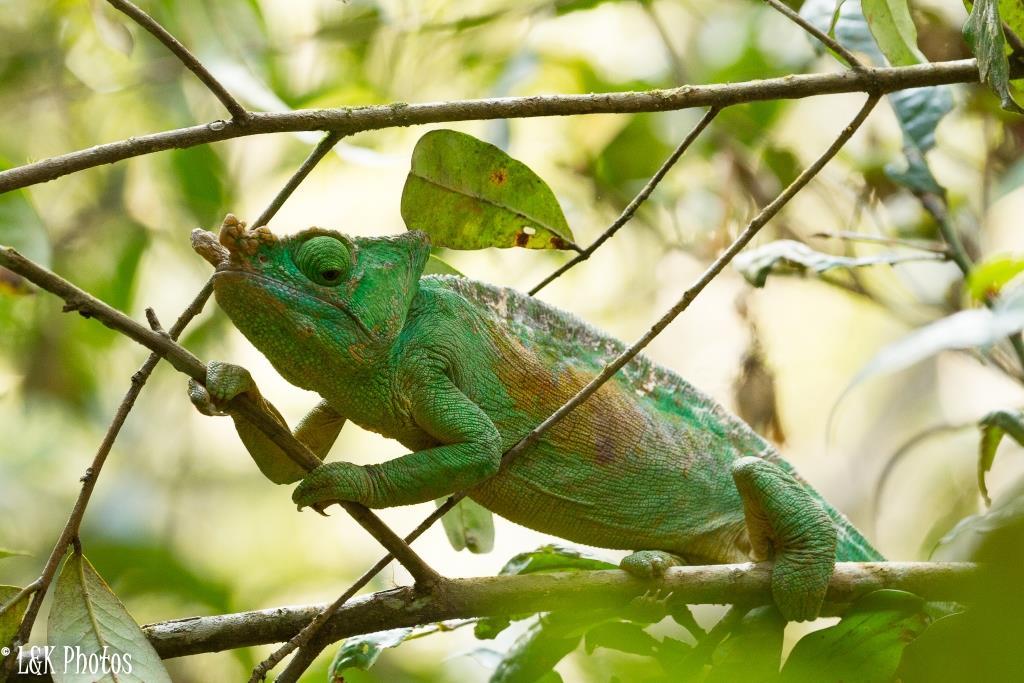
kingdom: Animalia
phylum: Chordata
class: Squamata
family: Chamaeleonidae
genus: Calumma
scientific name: Calumma parsonii
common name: Parson's chameleon
